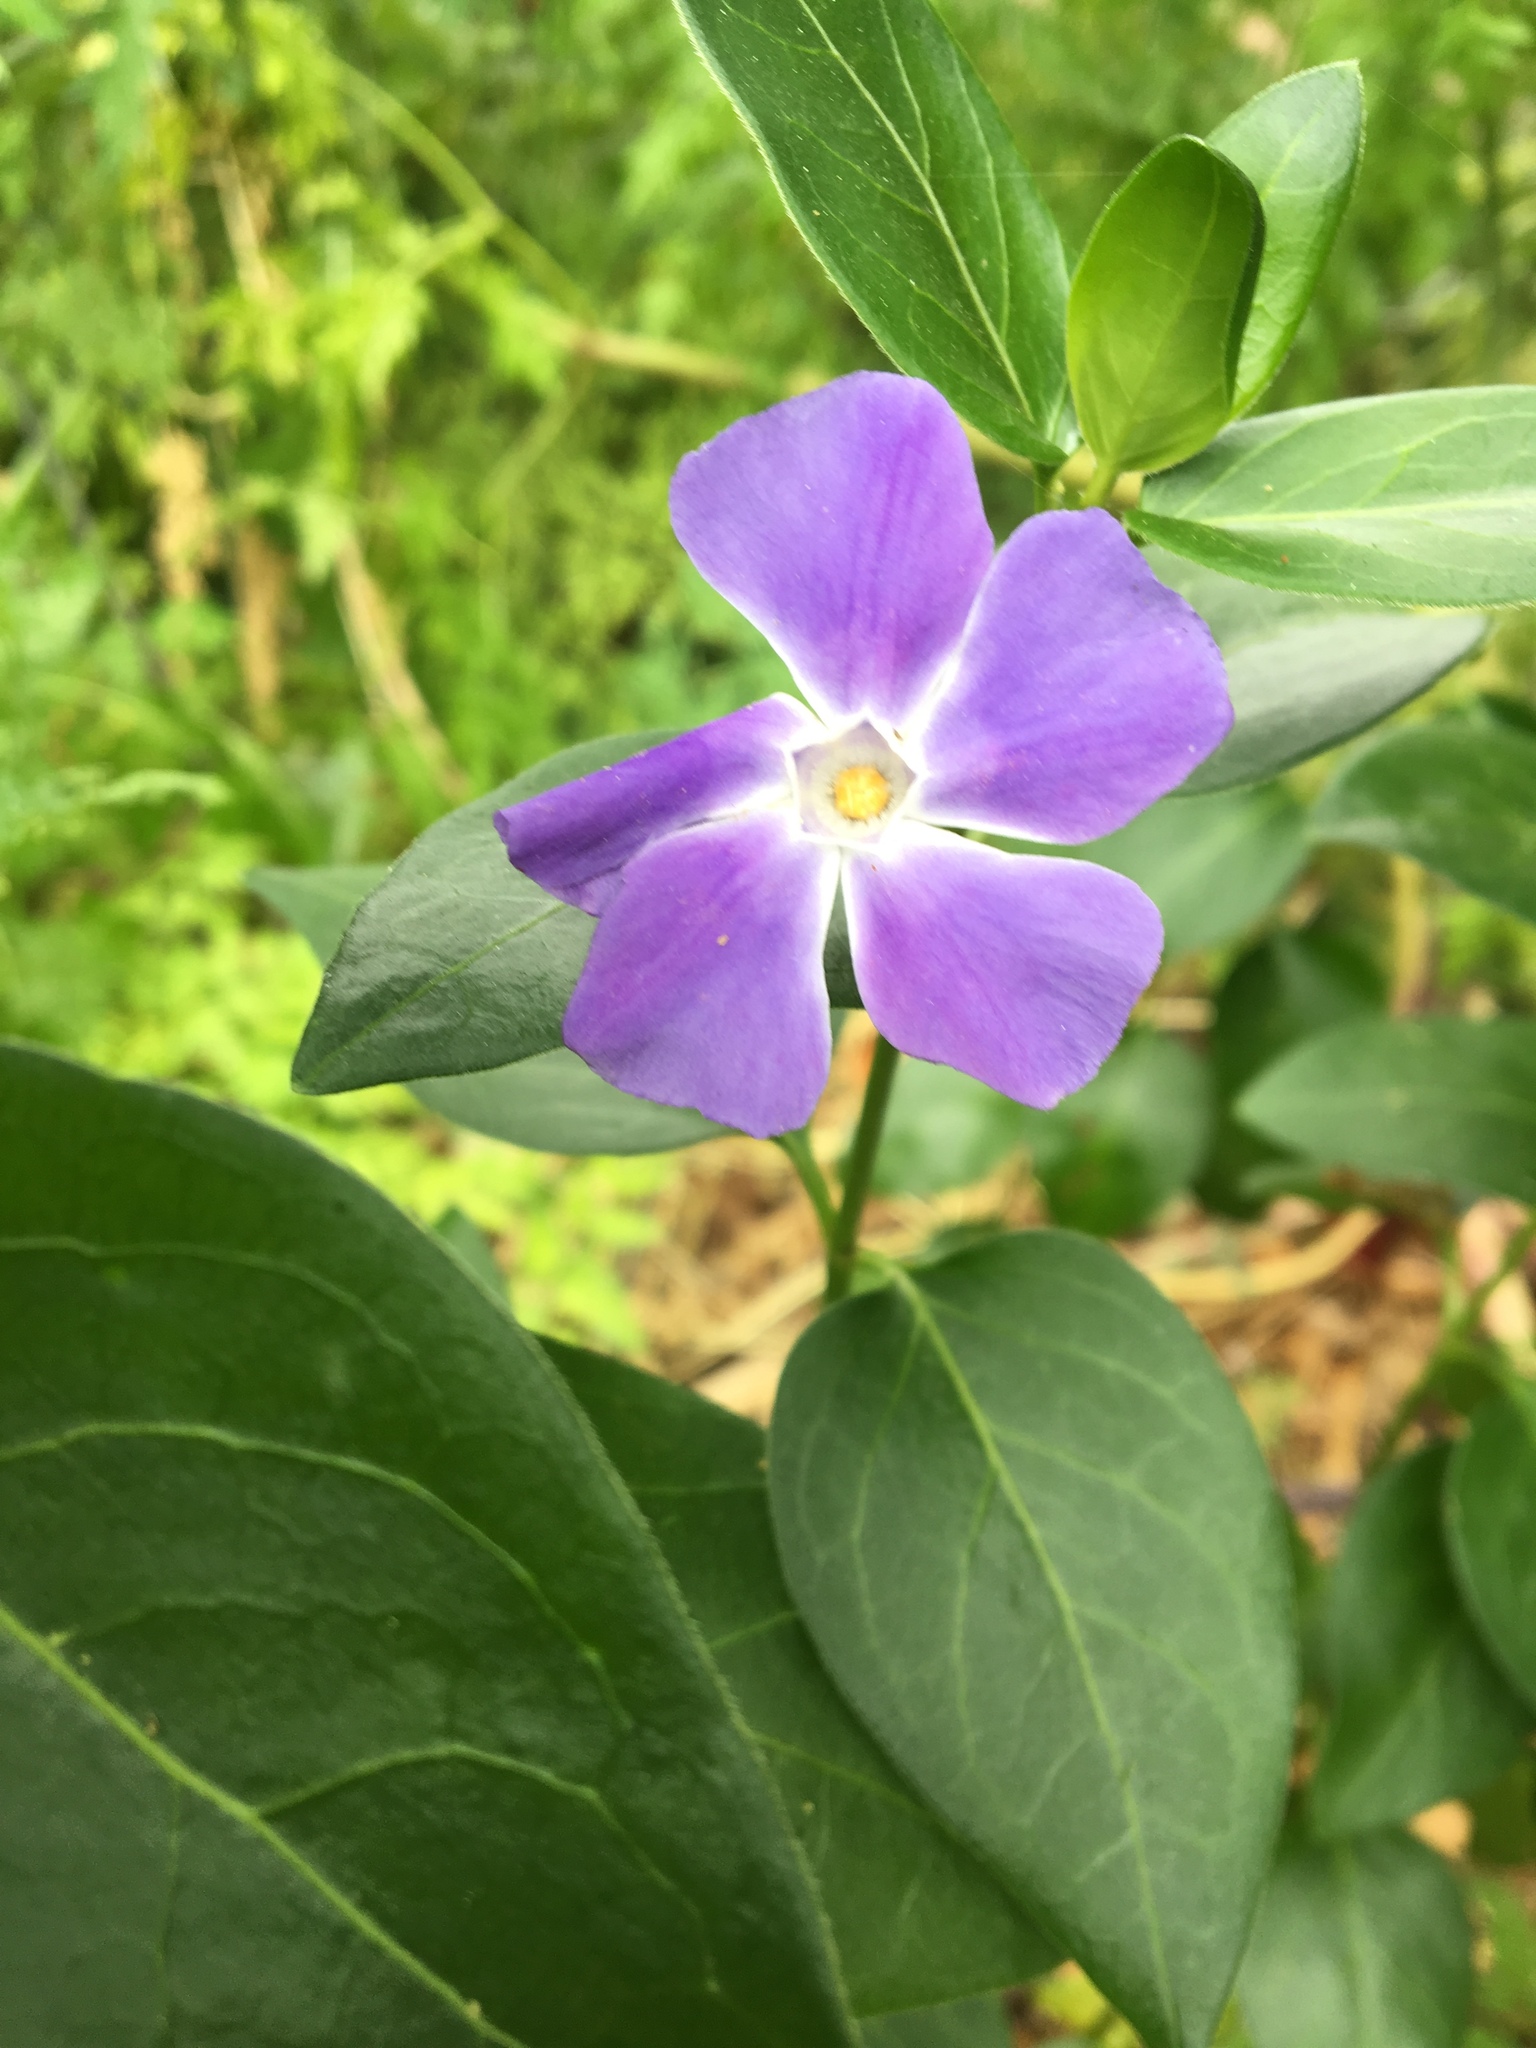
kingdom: Plantae
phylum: Tracheophyta
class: Magnoliopsida
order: Gentianales
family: Apocynaceae
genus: Vinca
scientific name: Vinca major
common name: Greater periwinkle
